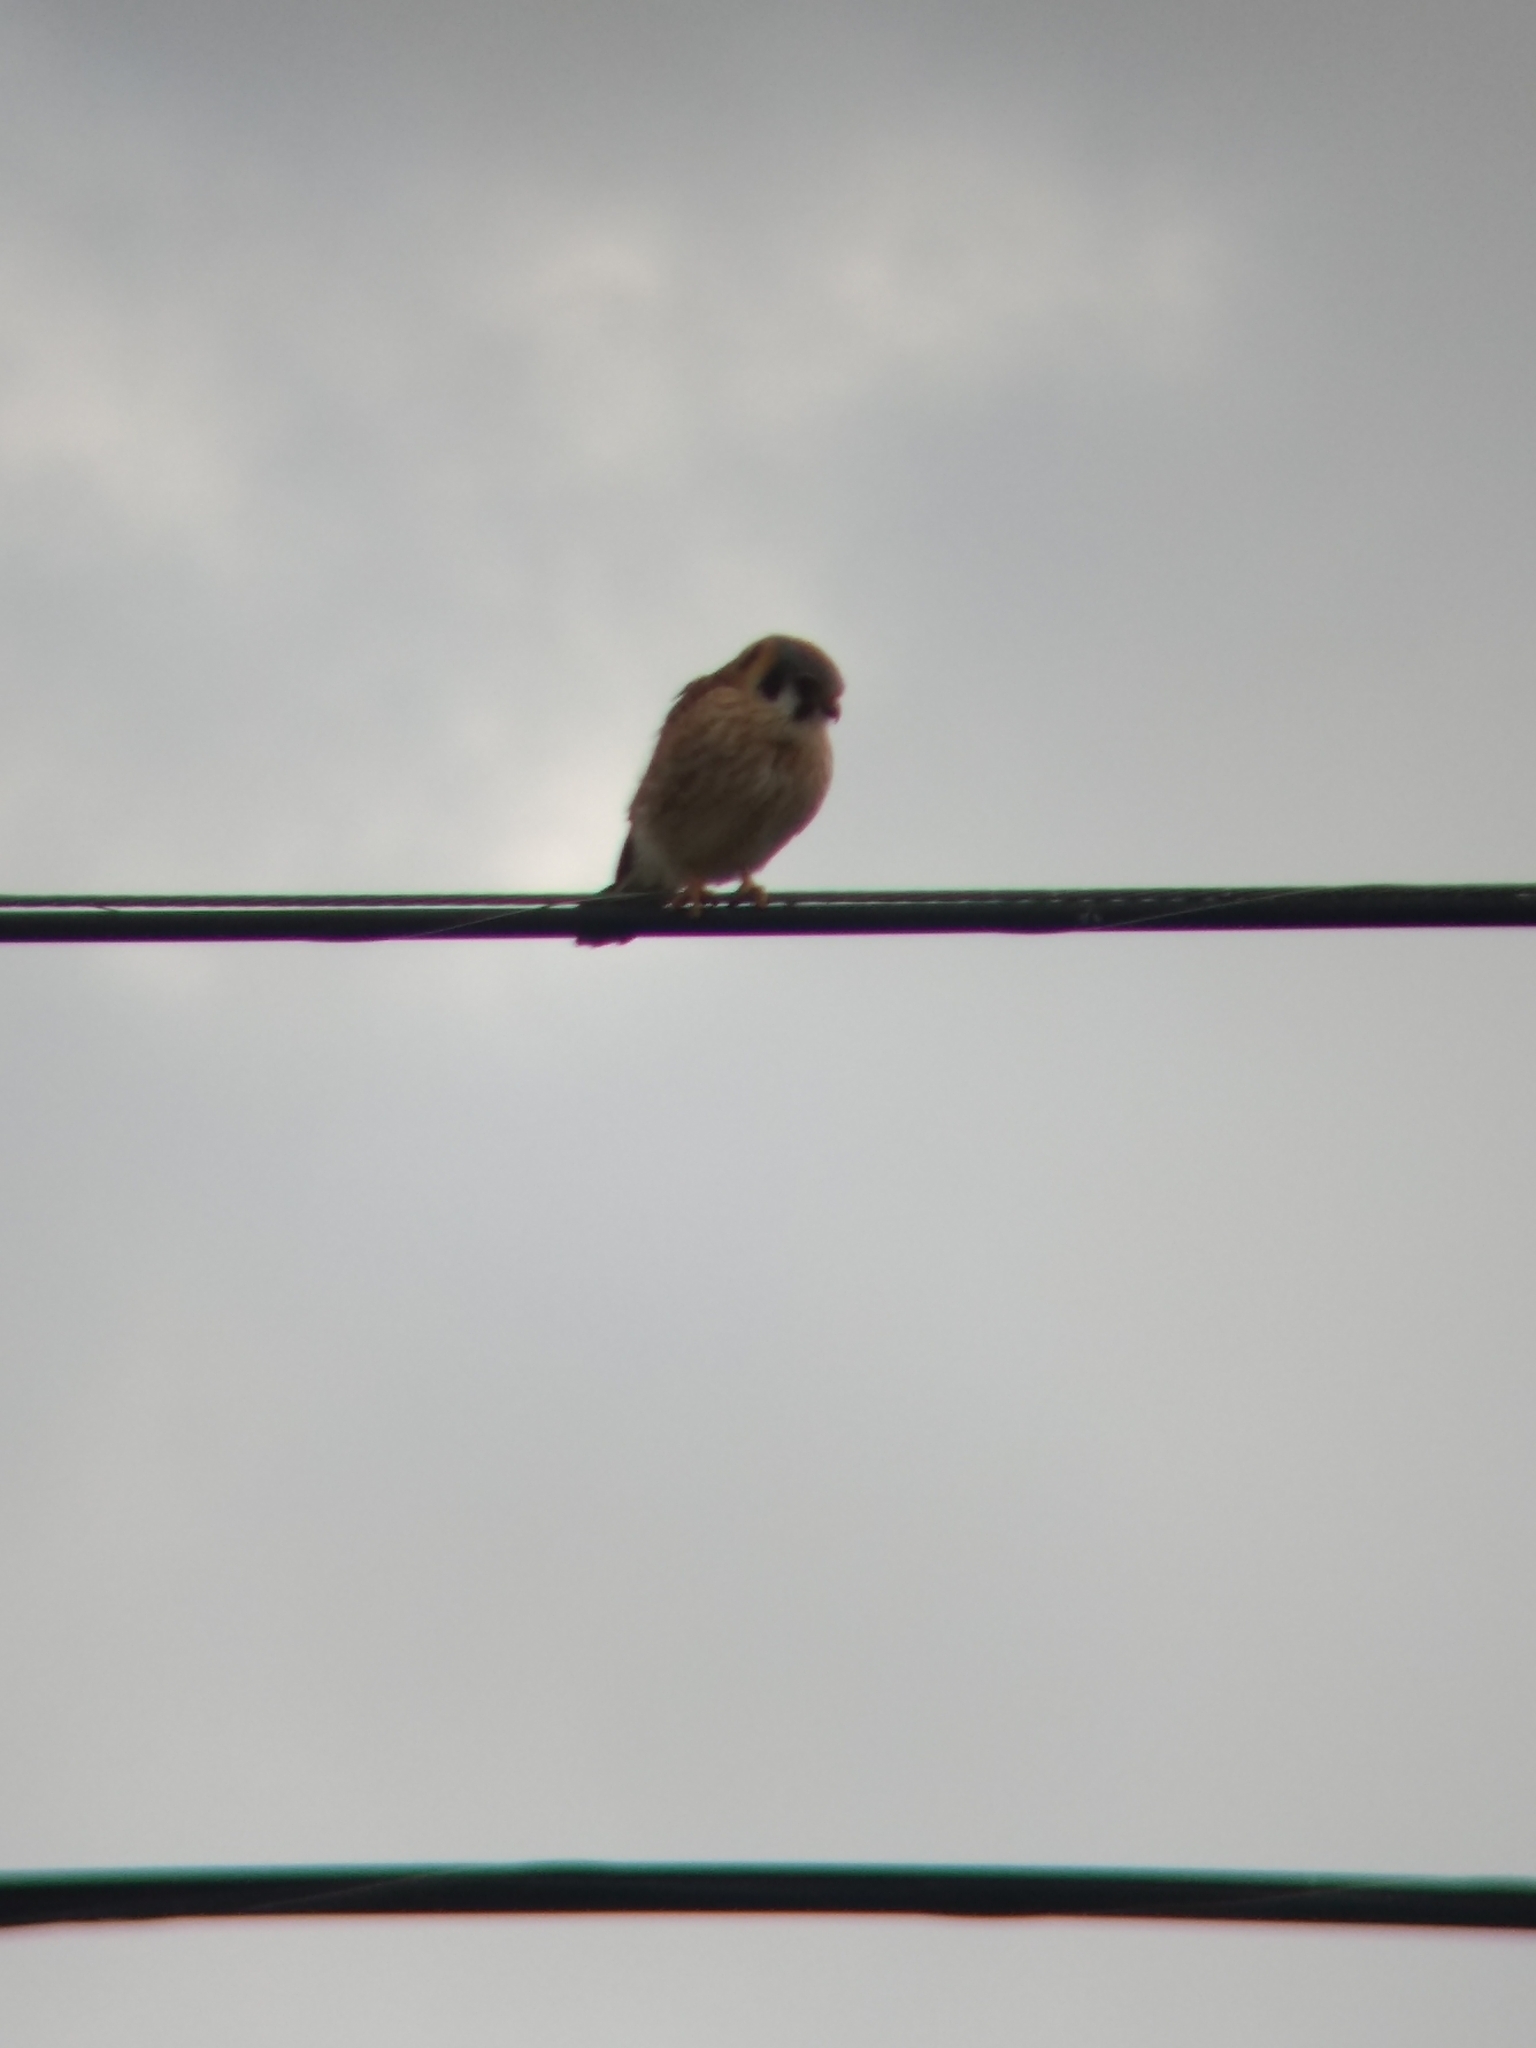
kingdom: Animalia
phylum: Chordata
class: Aves
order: Falconiformes
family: Falconidae
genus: Falco
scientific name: Falco sparverius
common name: American kestrel
